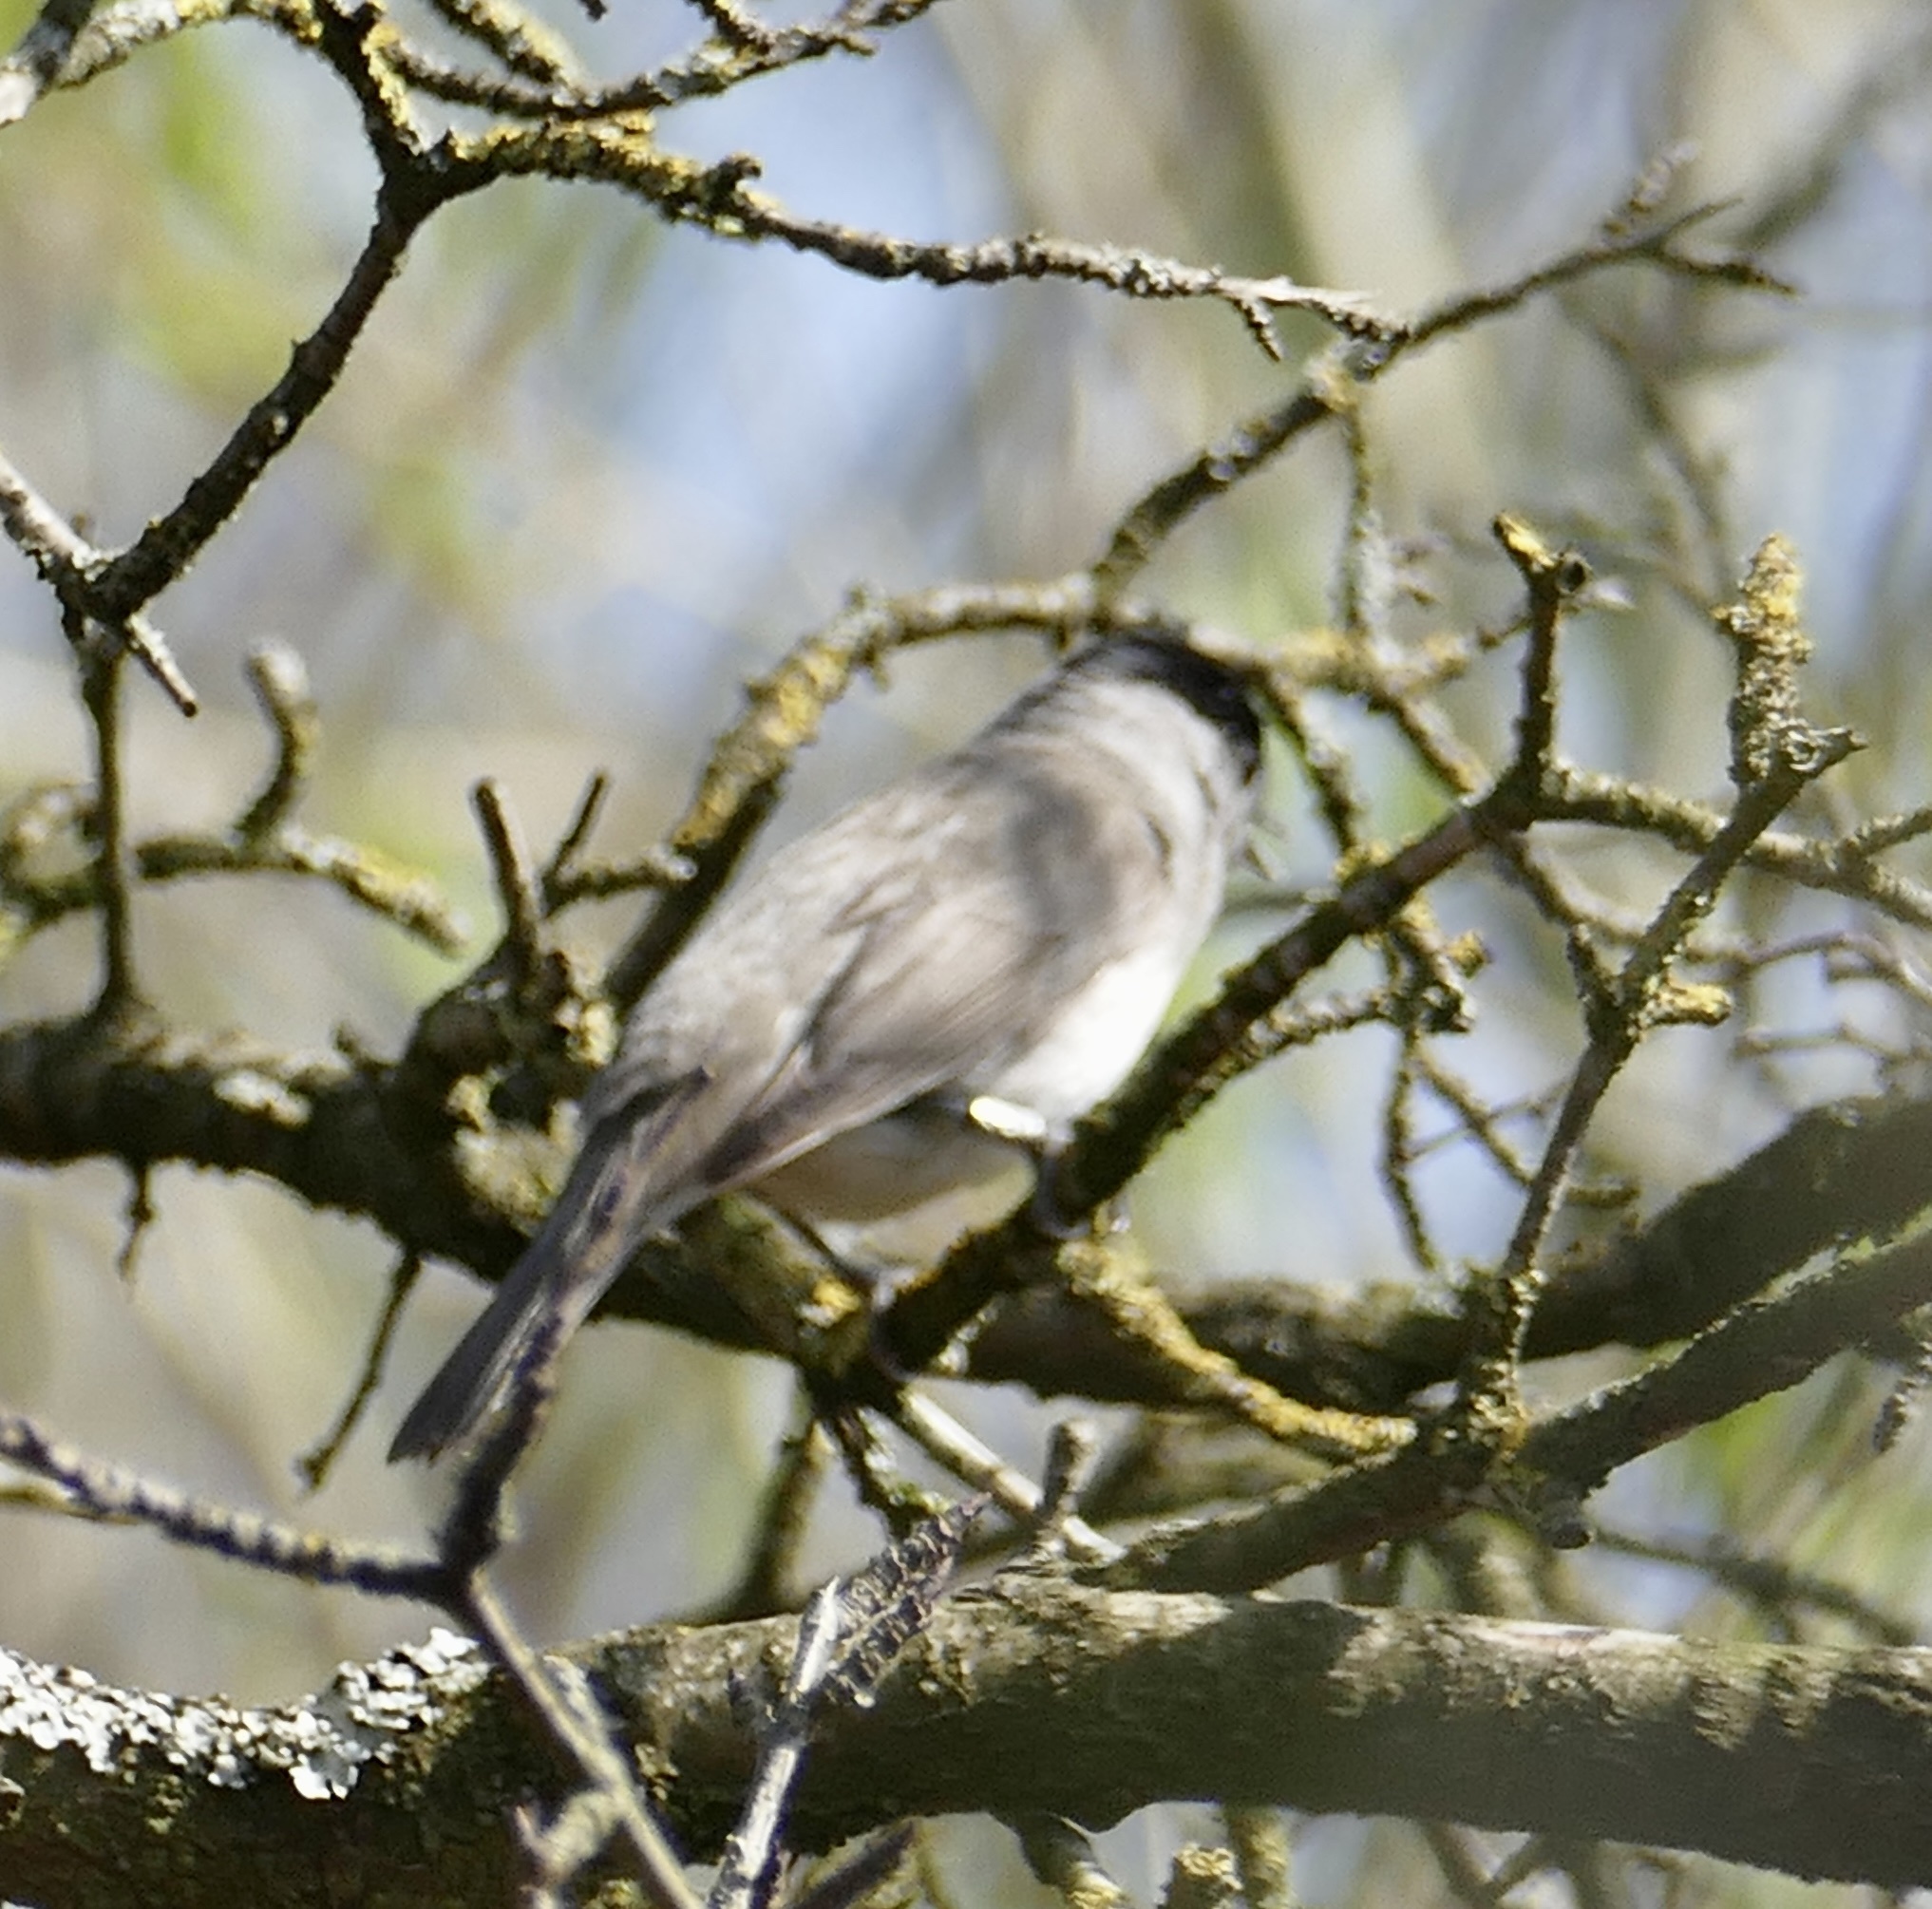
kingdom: Animalia
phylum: Chordata
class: Aves
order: Passeriformes
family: Sylviidae
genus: Sylvia
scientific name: Sylvia atricapilla
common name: Eurasian blackcap
